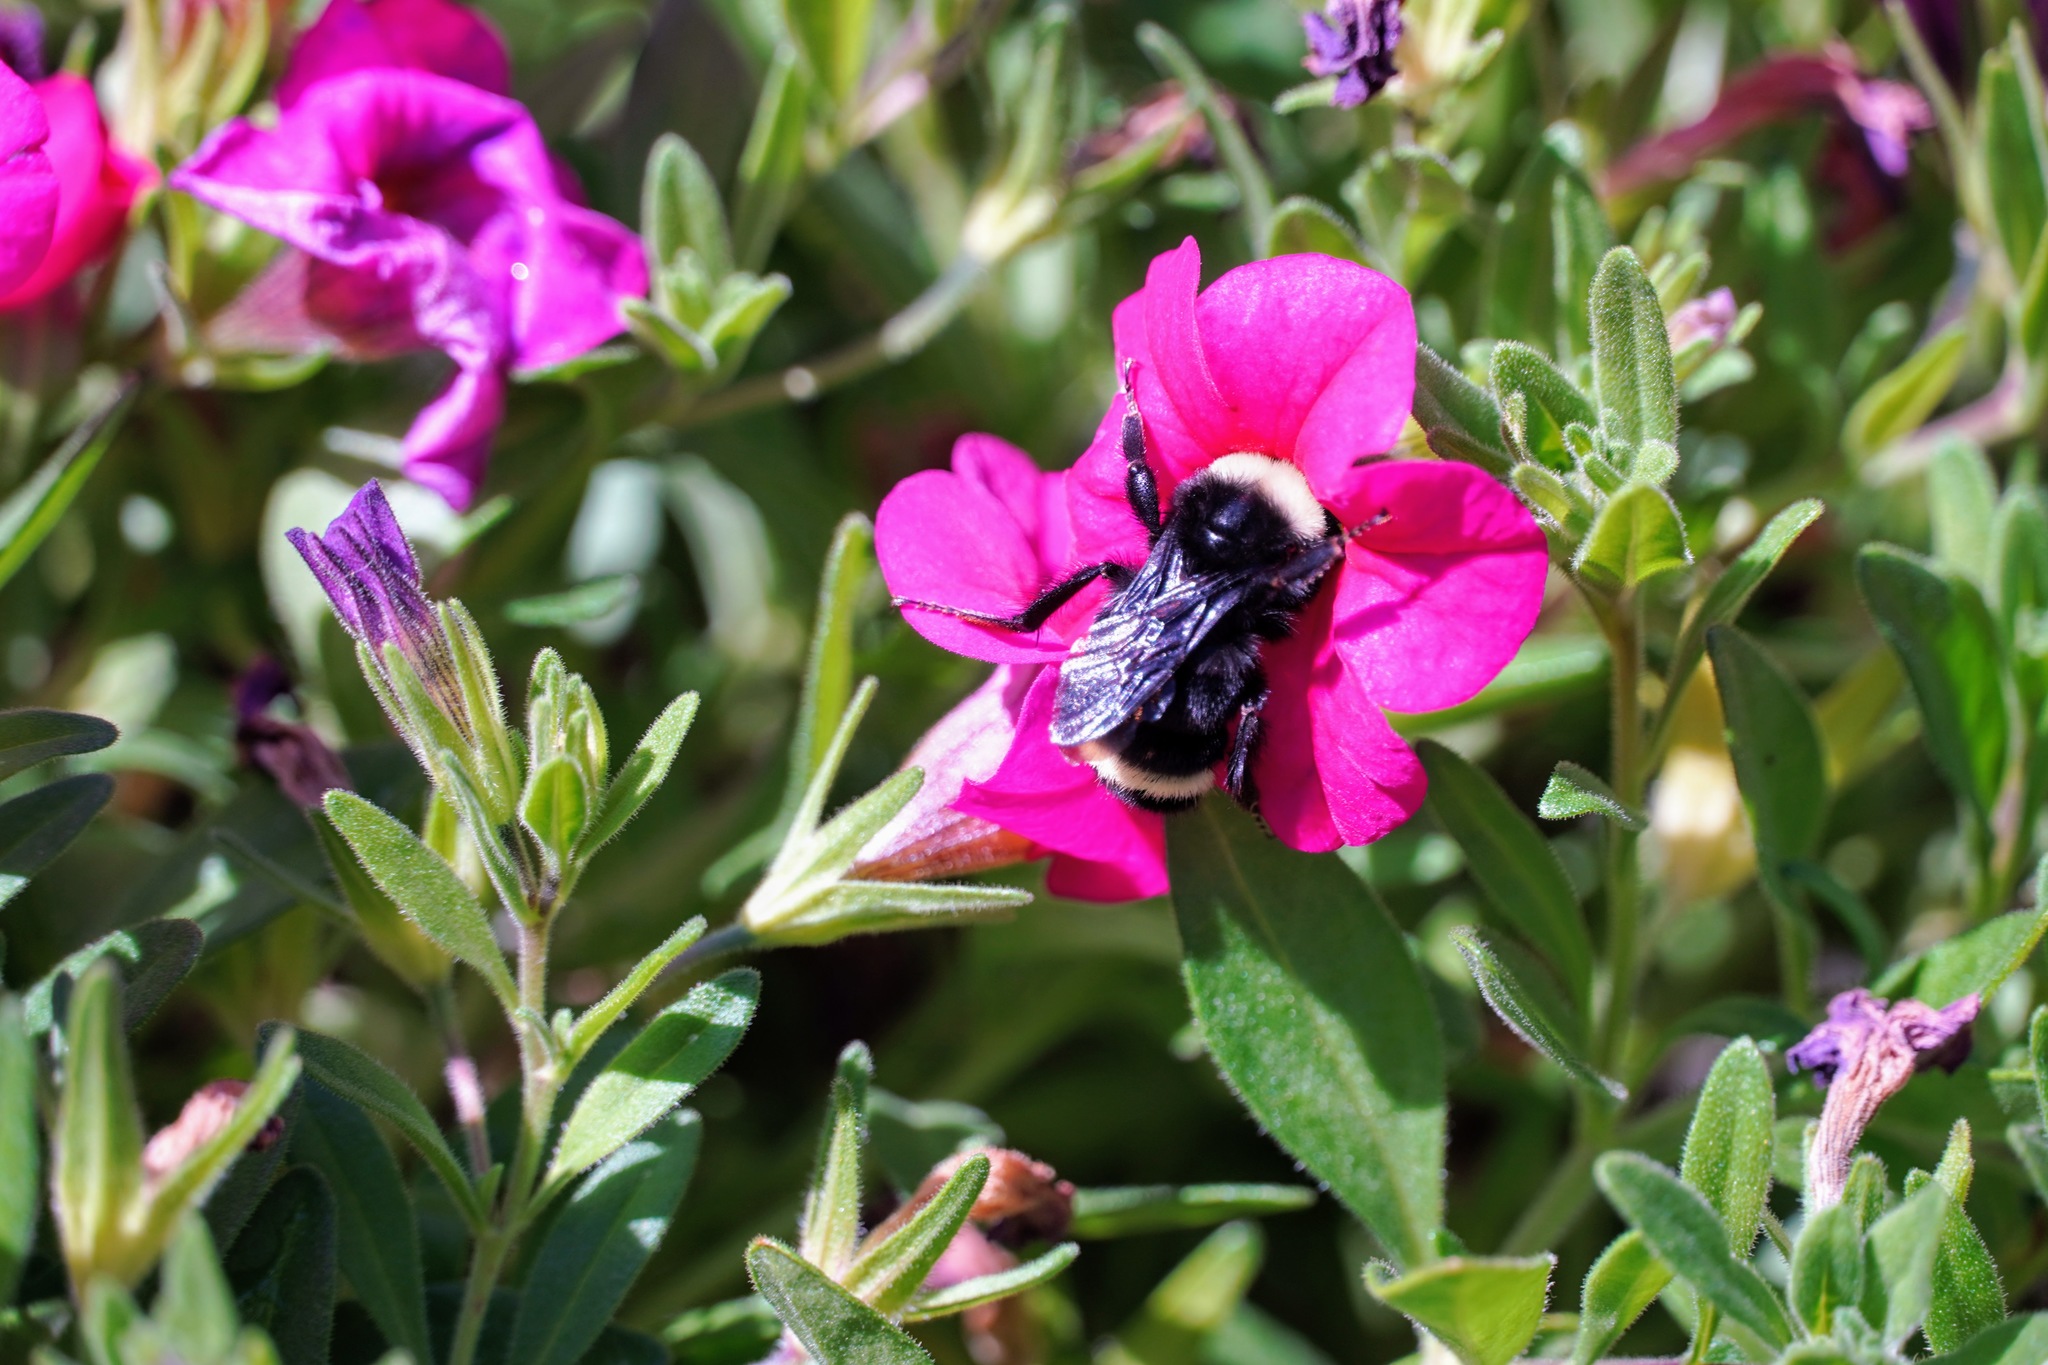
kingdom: Animalia
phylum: Arthropoda
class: Insecta
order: Hymenoptera
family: Apidae
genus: Bombus
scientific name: Bombus vosnesenskii
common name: Vosnesensky bumble bee
